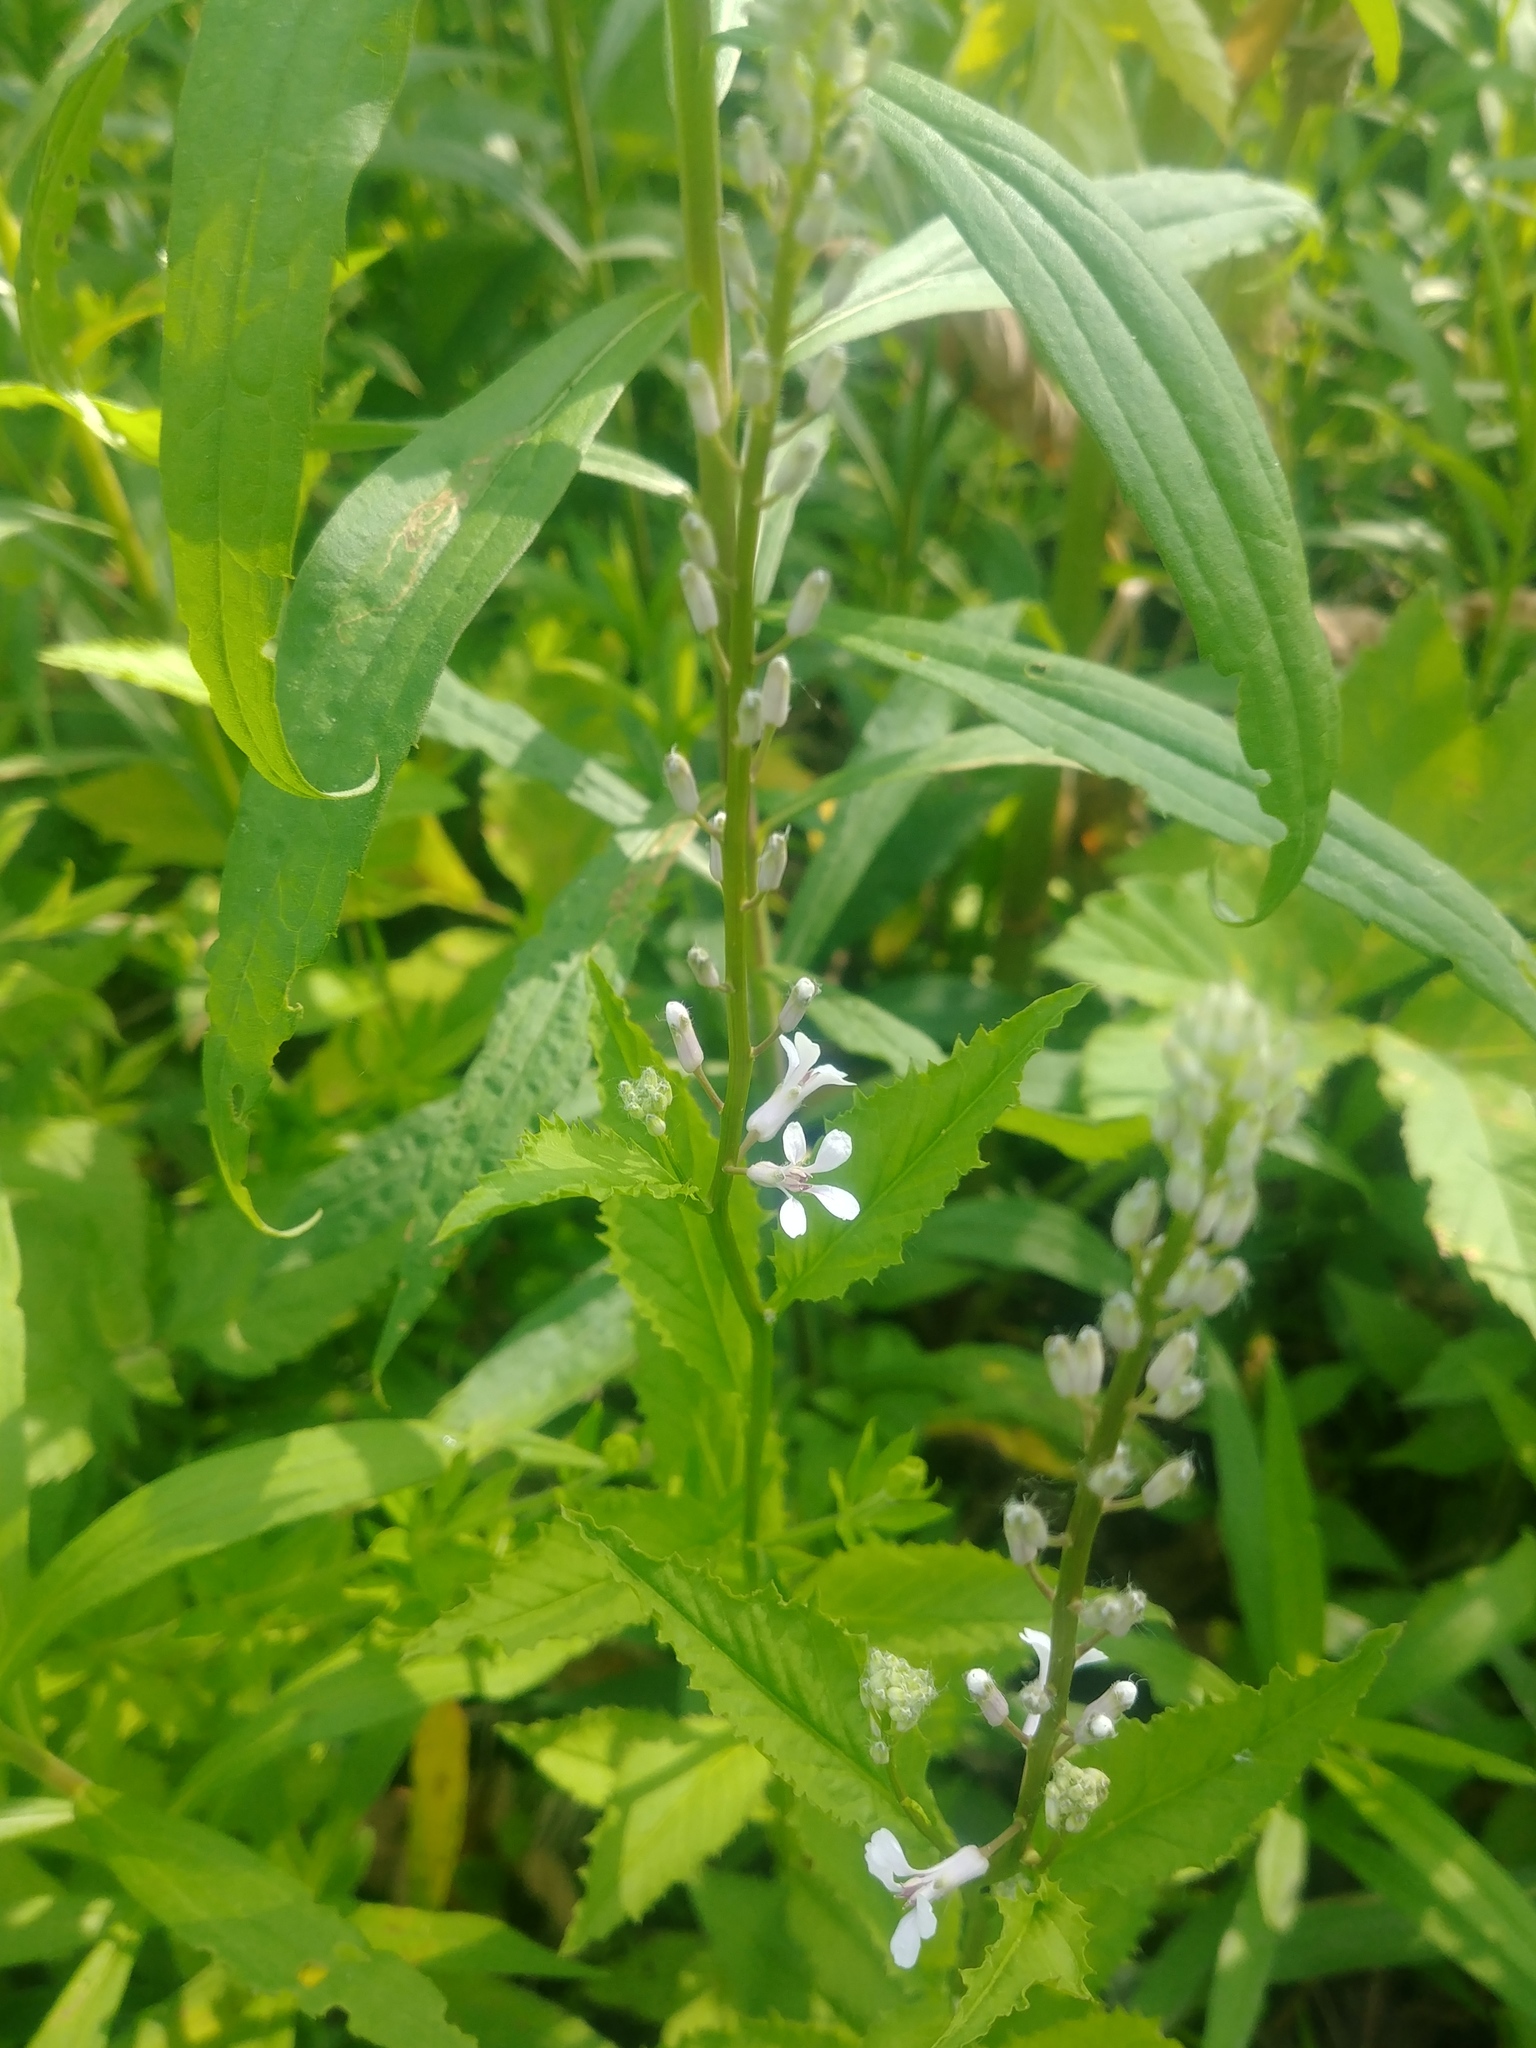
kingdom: Plantae
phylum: Tracheophyta
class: Magnoliopsida
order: Brassicales
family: Brassicaceae
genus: Iodanthus
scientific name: Iodanthus pinnatifidus
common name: Violet rocket
